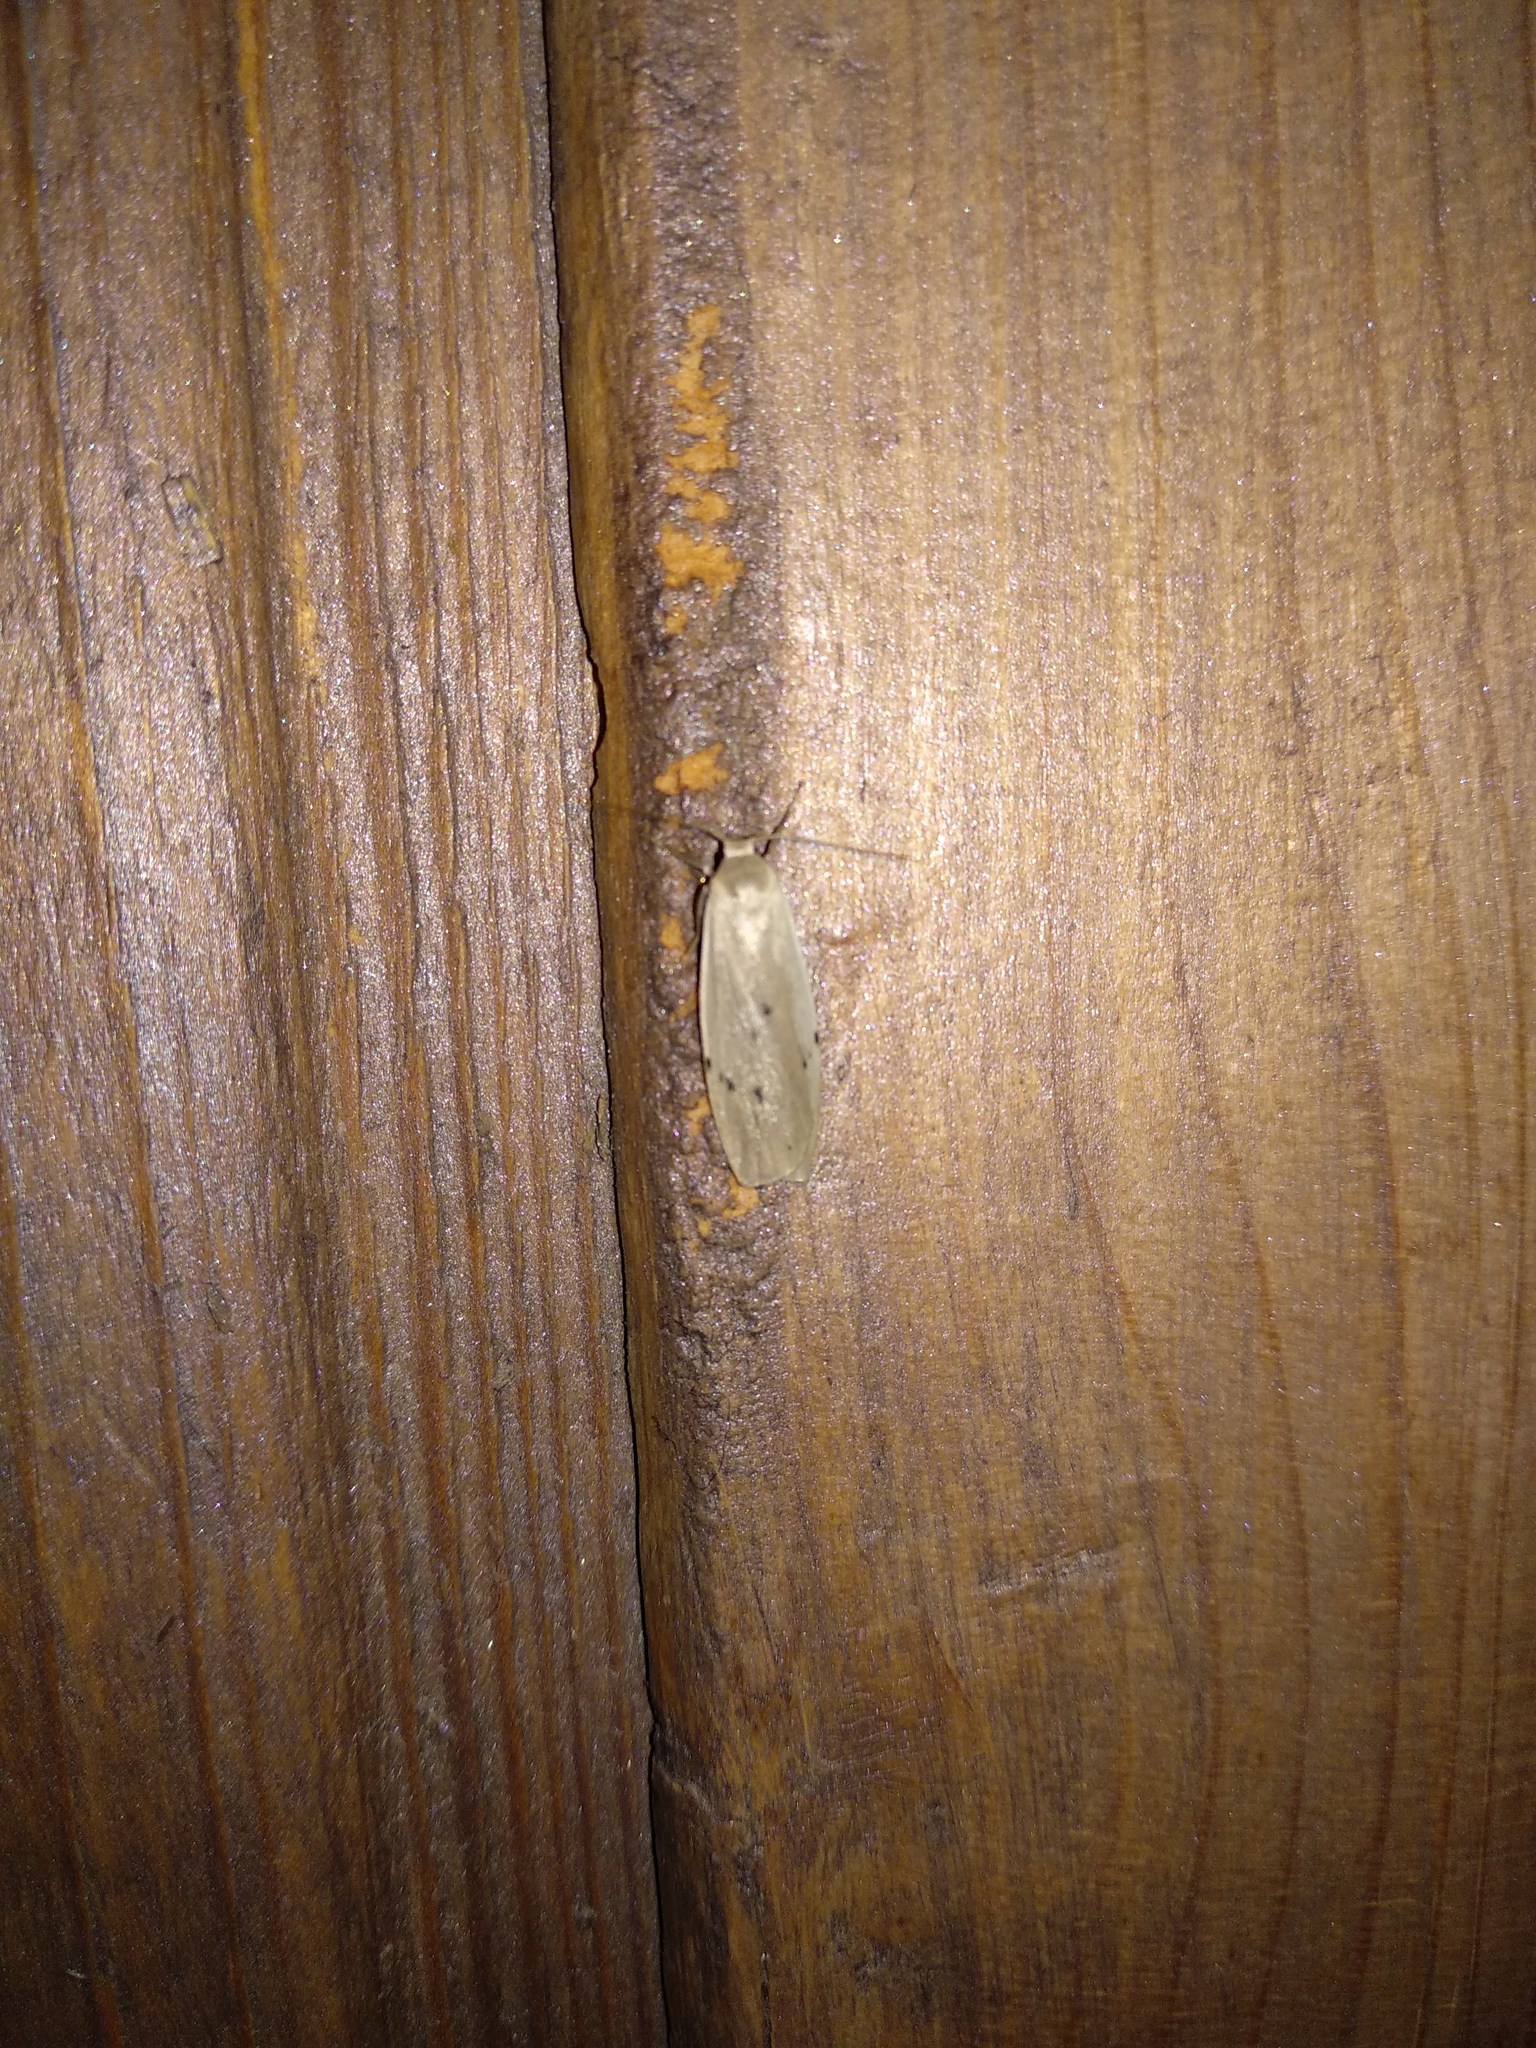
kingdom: Animalia
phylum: Arthropoda
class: Insecta
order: Lepidoptera
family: Erebidae
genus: Pelosia
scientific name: Pelosia muscerda
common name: Dotted footman
